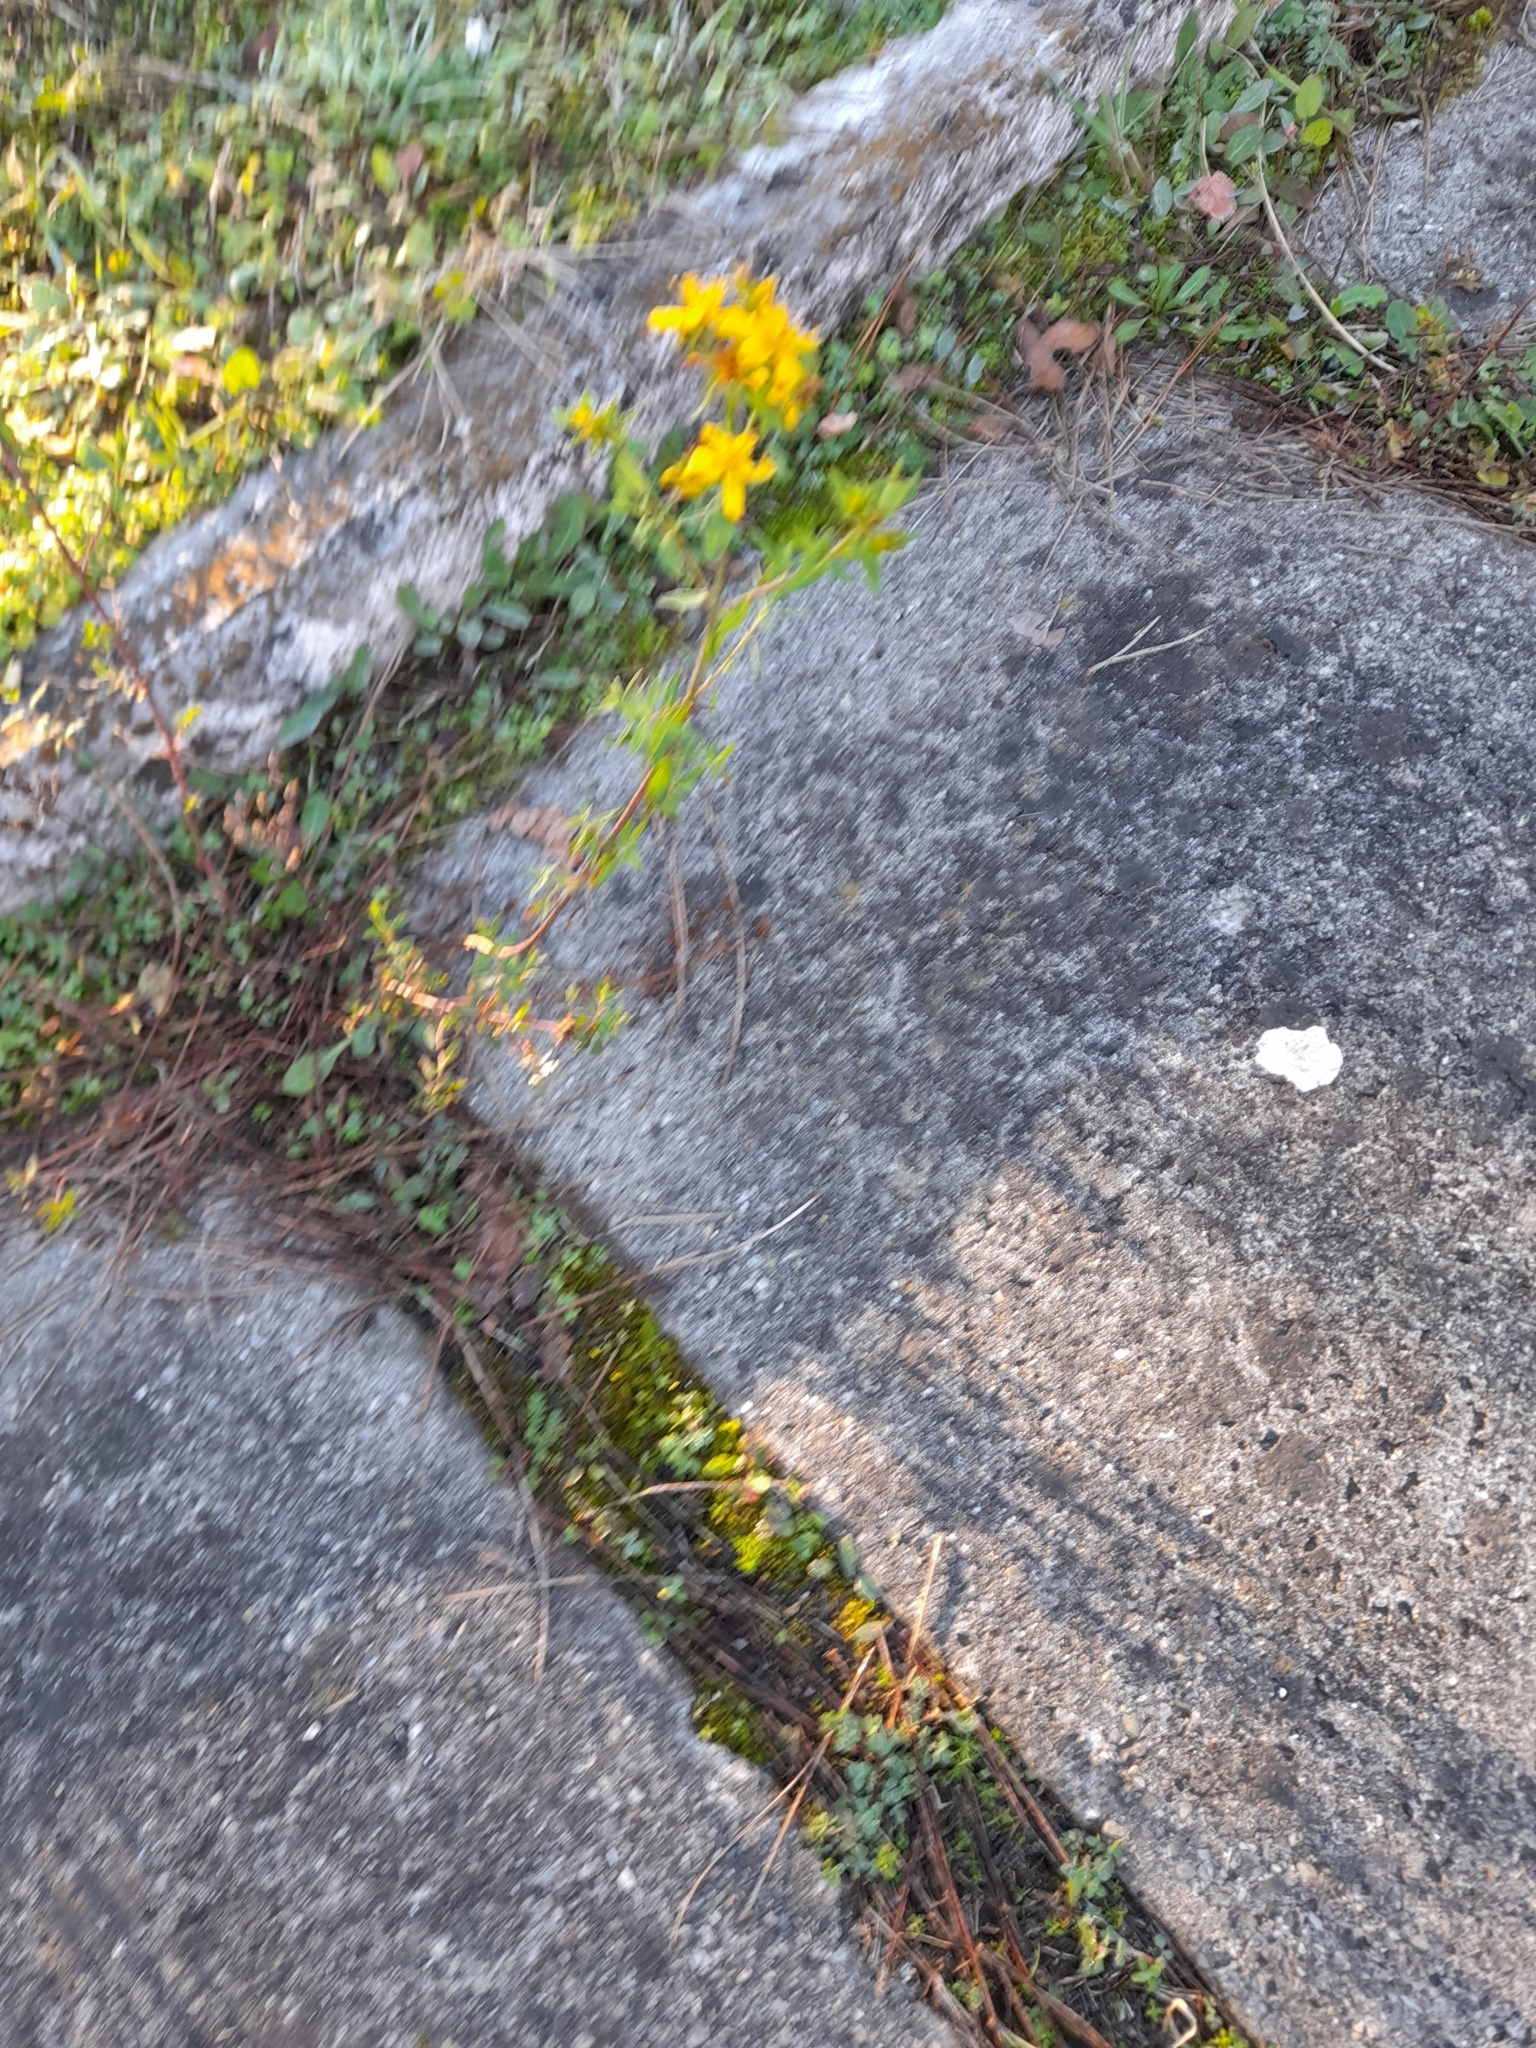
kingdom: Plantae
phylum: Tracheophyta
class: Magnoliopsida
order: Malpighiales
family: Hypericaceae
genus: Hypericum
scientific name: Hypericum perforatum
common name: Common st. johnswort
